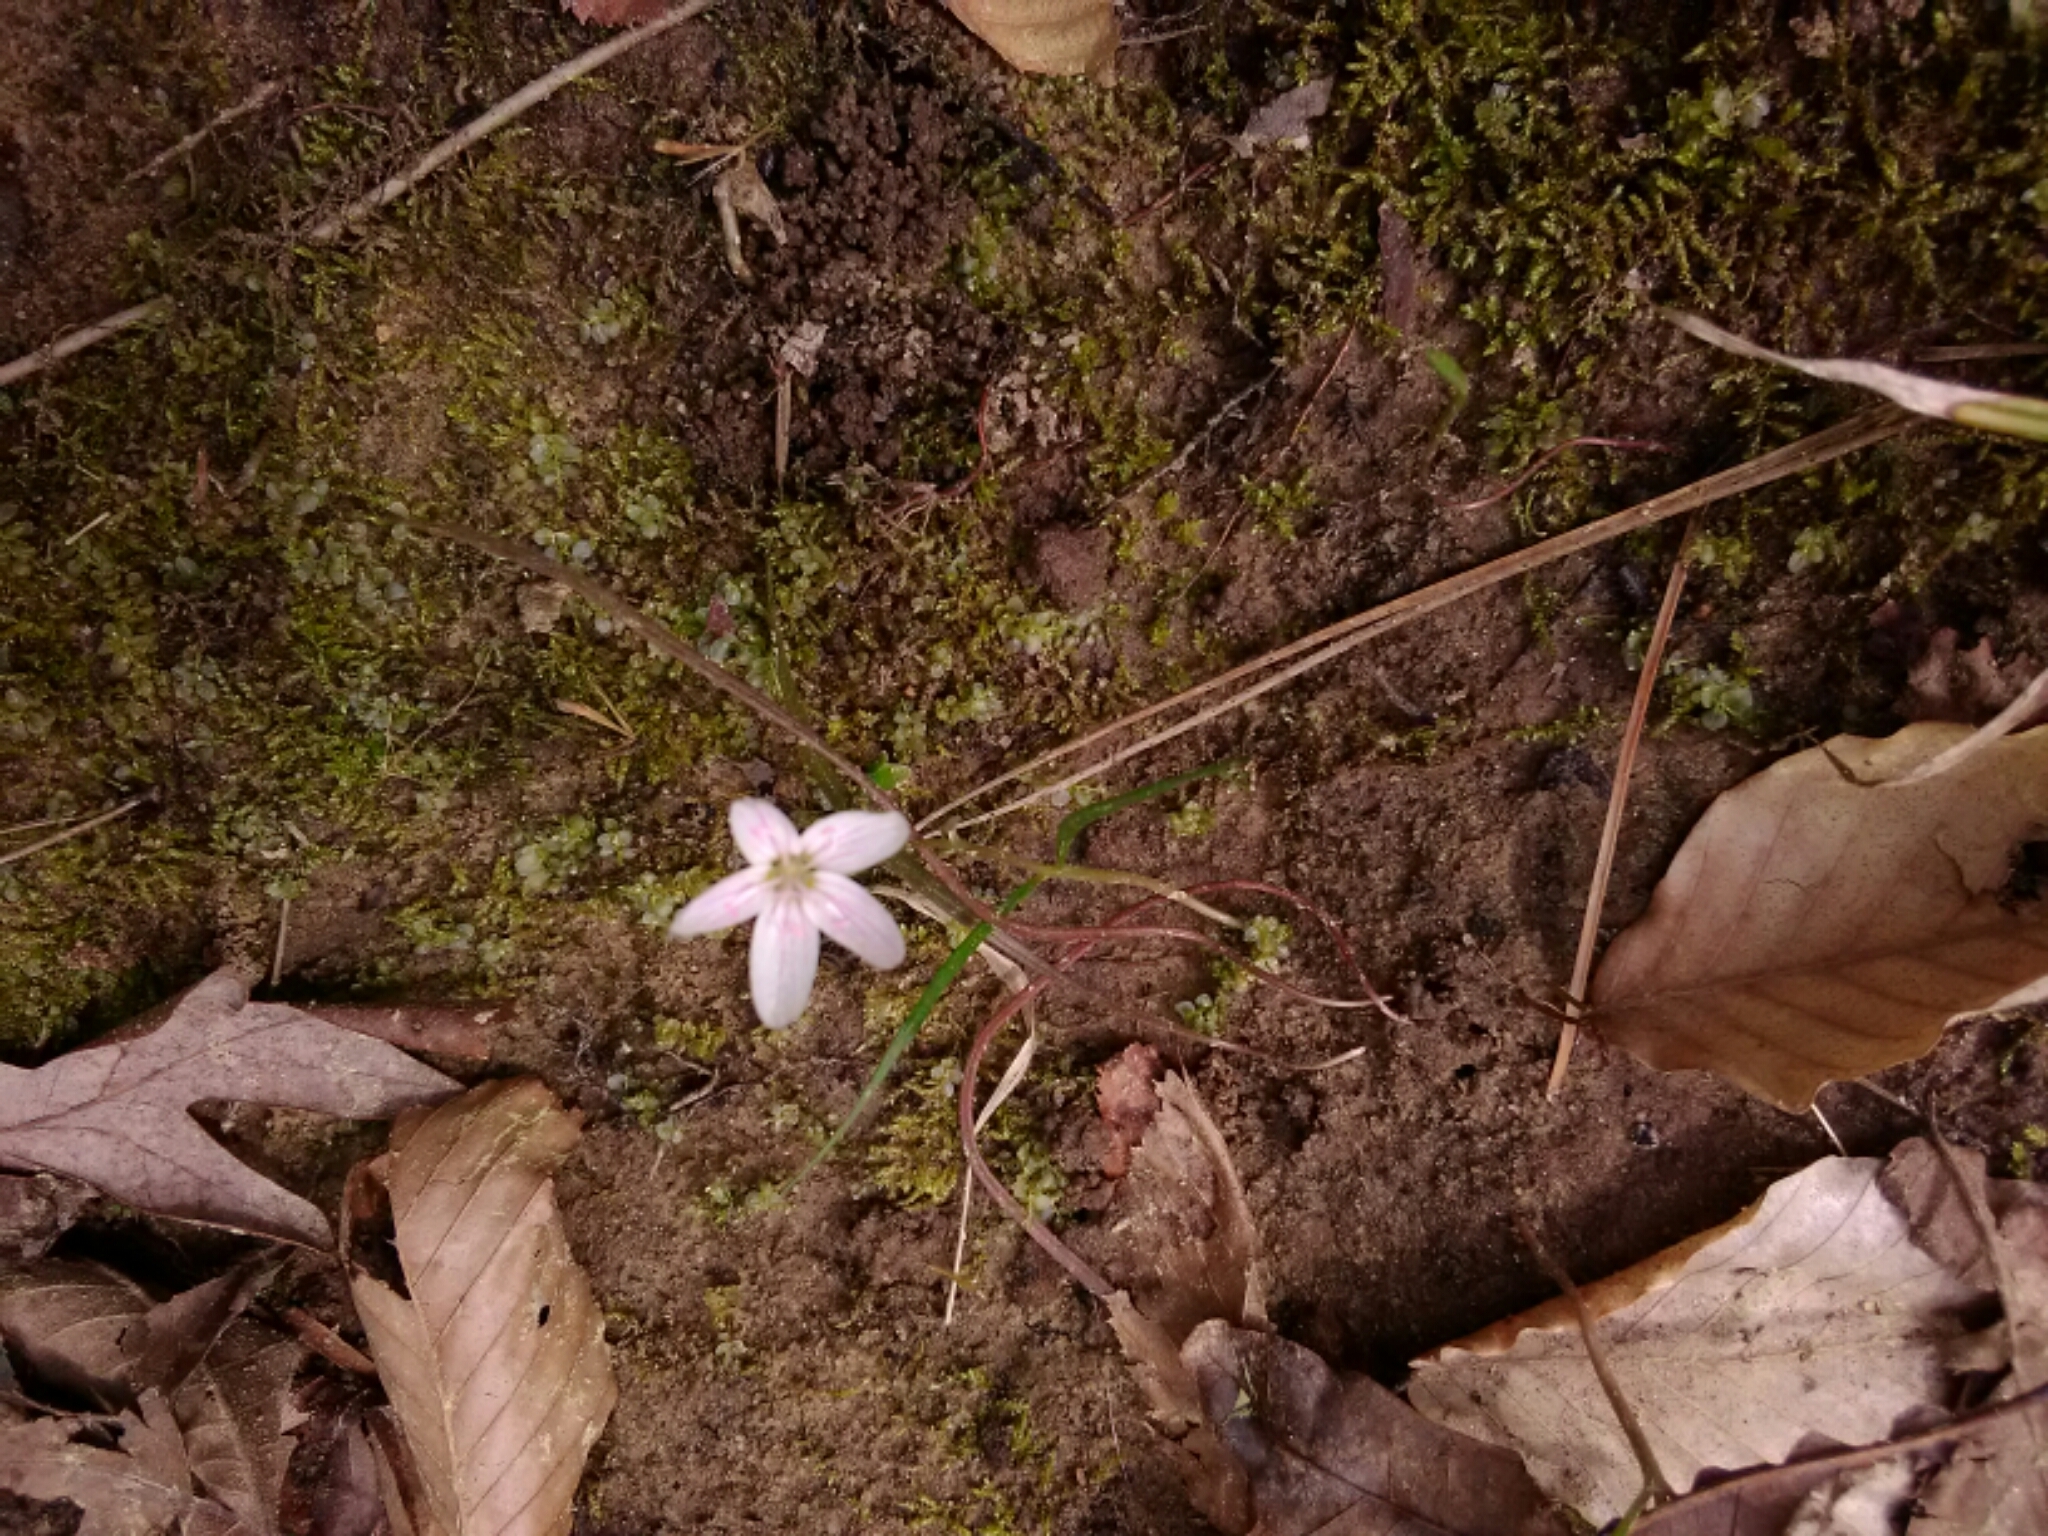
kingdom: Plantae
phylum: Tracheophyta
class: Magnoliopsida
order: Caryophyllales
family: Montiaceae
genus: Claytonia
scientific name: Claytonia virginica
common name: Virginia springbeauty
